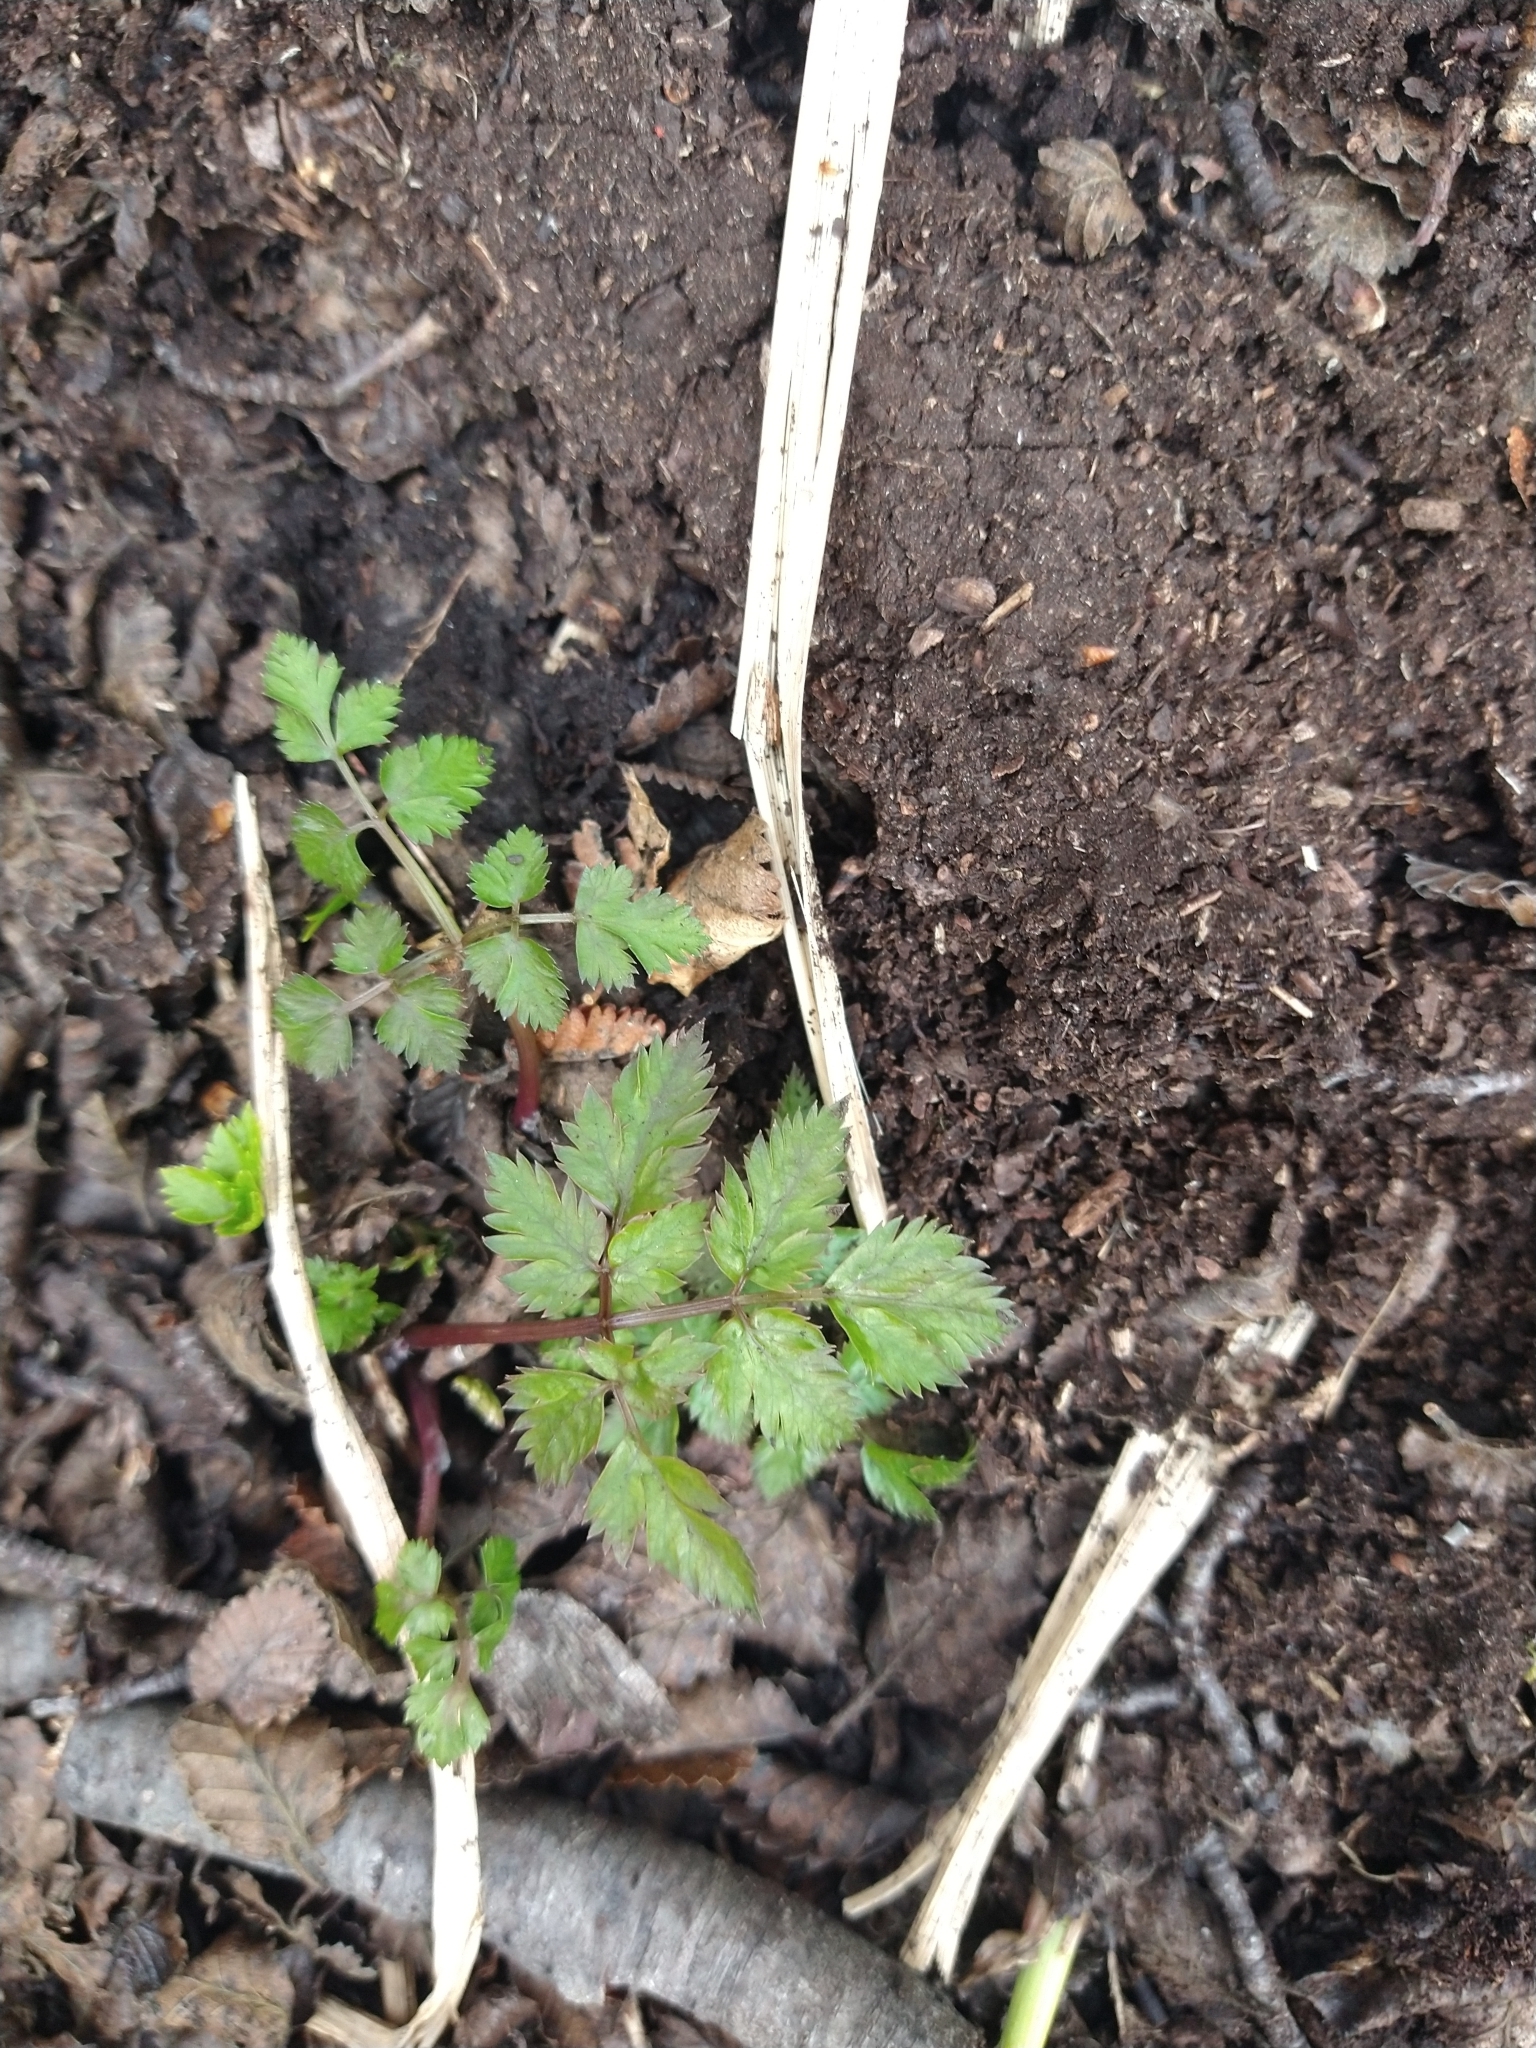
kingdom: Plantae
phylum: Tracheophyta
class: Magnoliopsida
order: Apiales
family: Apiaceae
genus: Osmorhiza
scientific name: Osmorhiza berteroi
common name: Mountain sweet cicely
